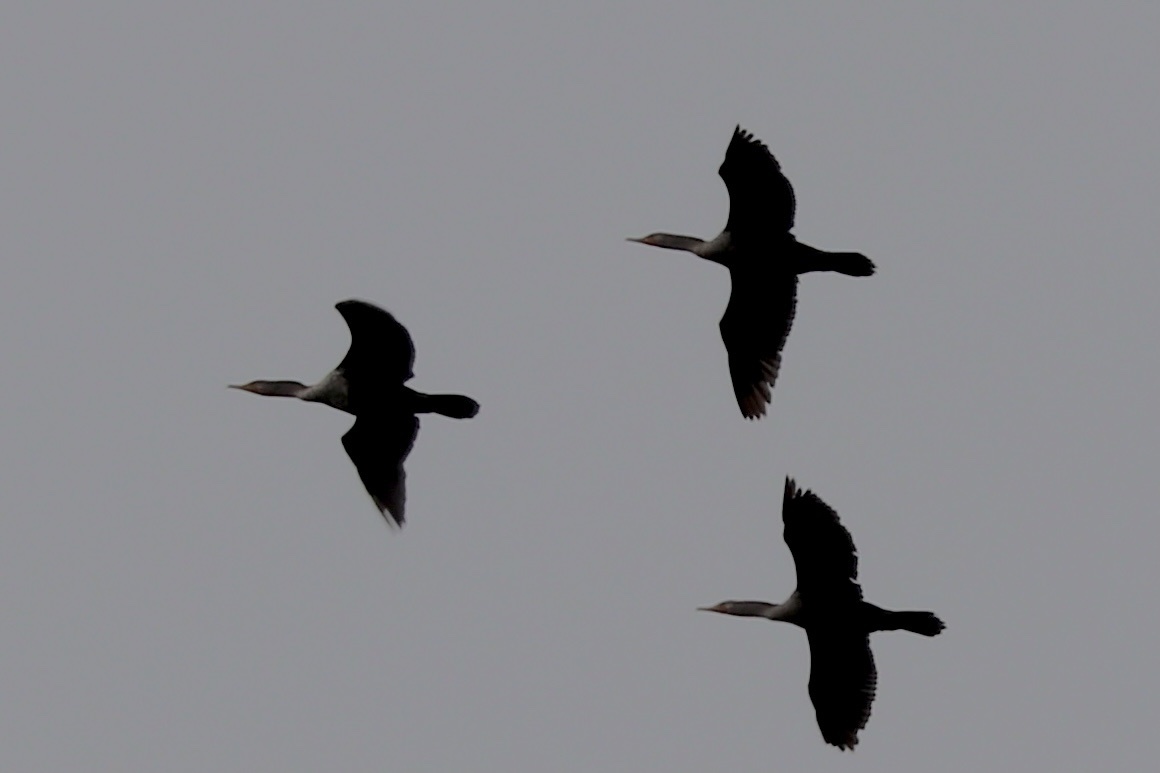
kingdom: Animalia
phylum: Chordata
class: Aves
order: Suliformes
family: Phalacrocoracidae
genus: Phalacrocorax
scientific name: Phalacrocorax auritus
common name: Double-crested cormorant
